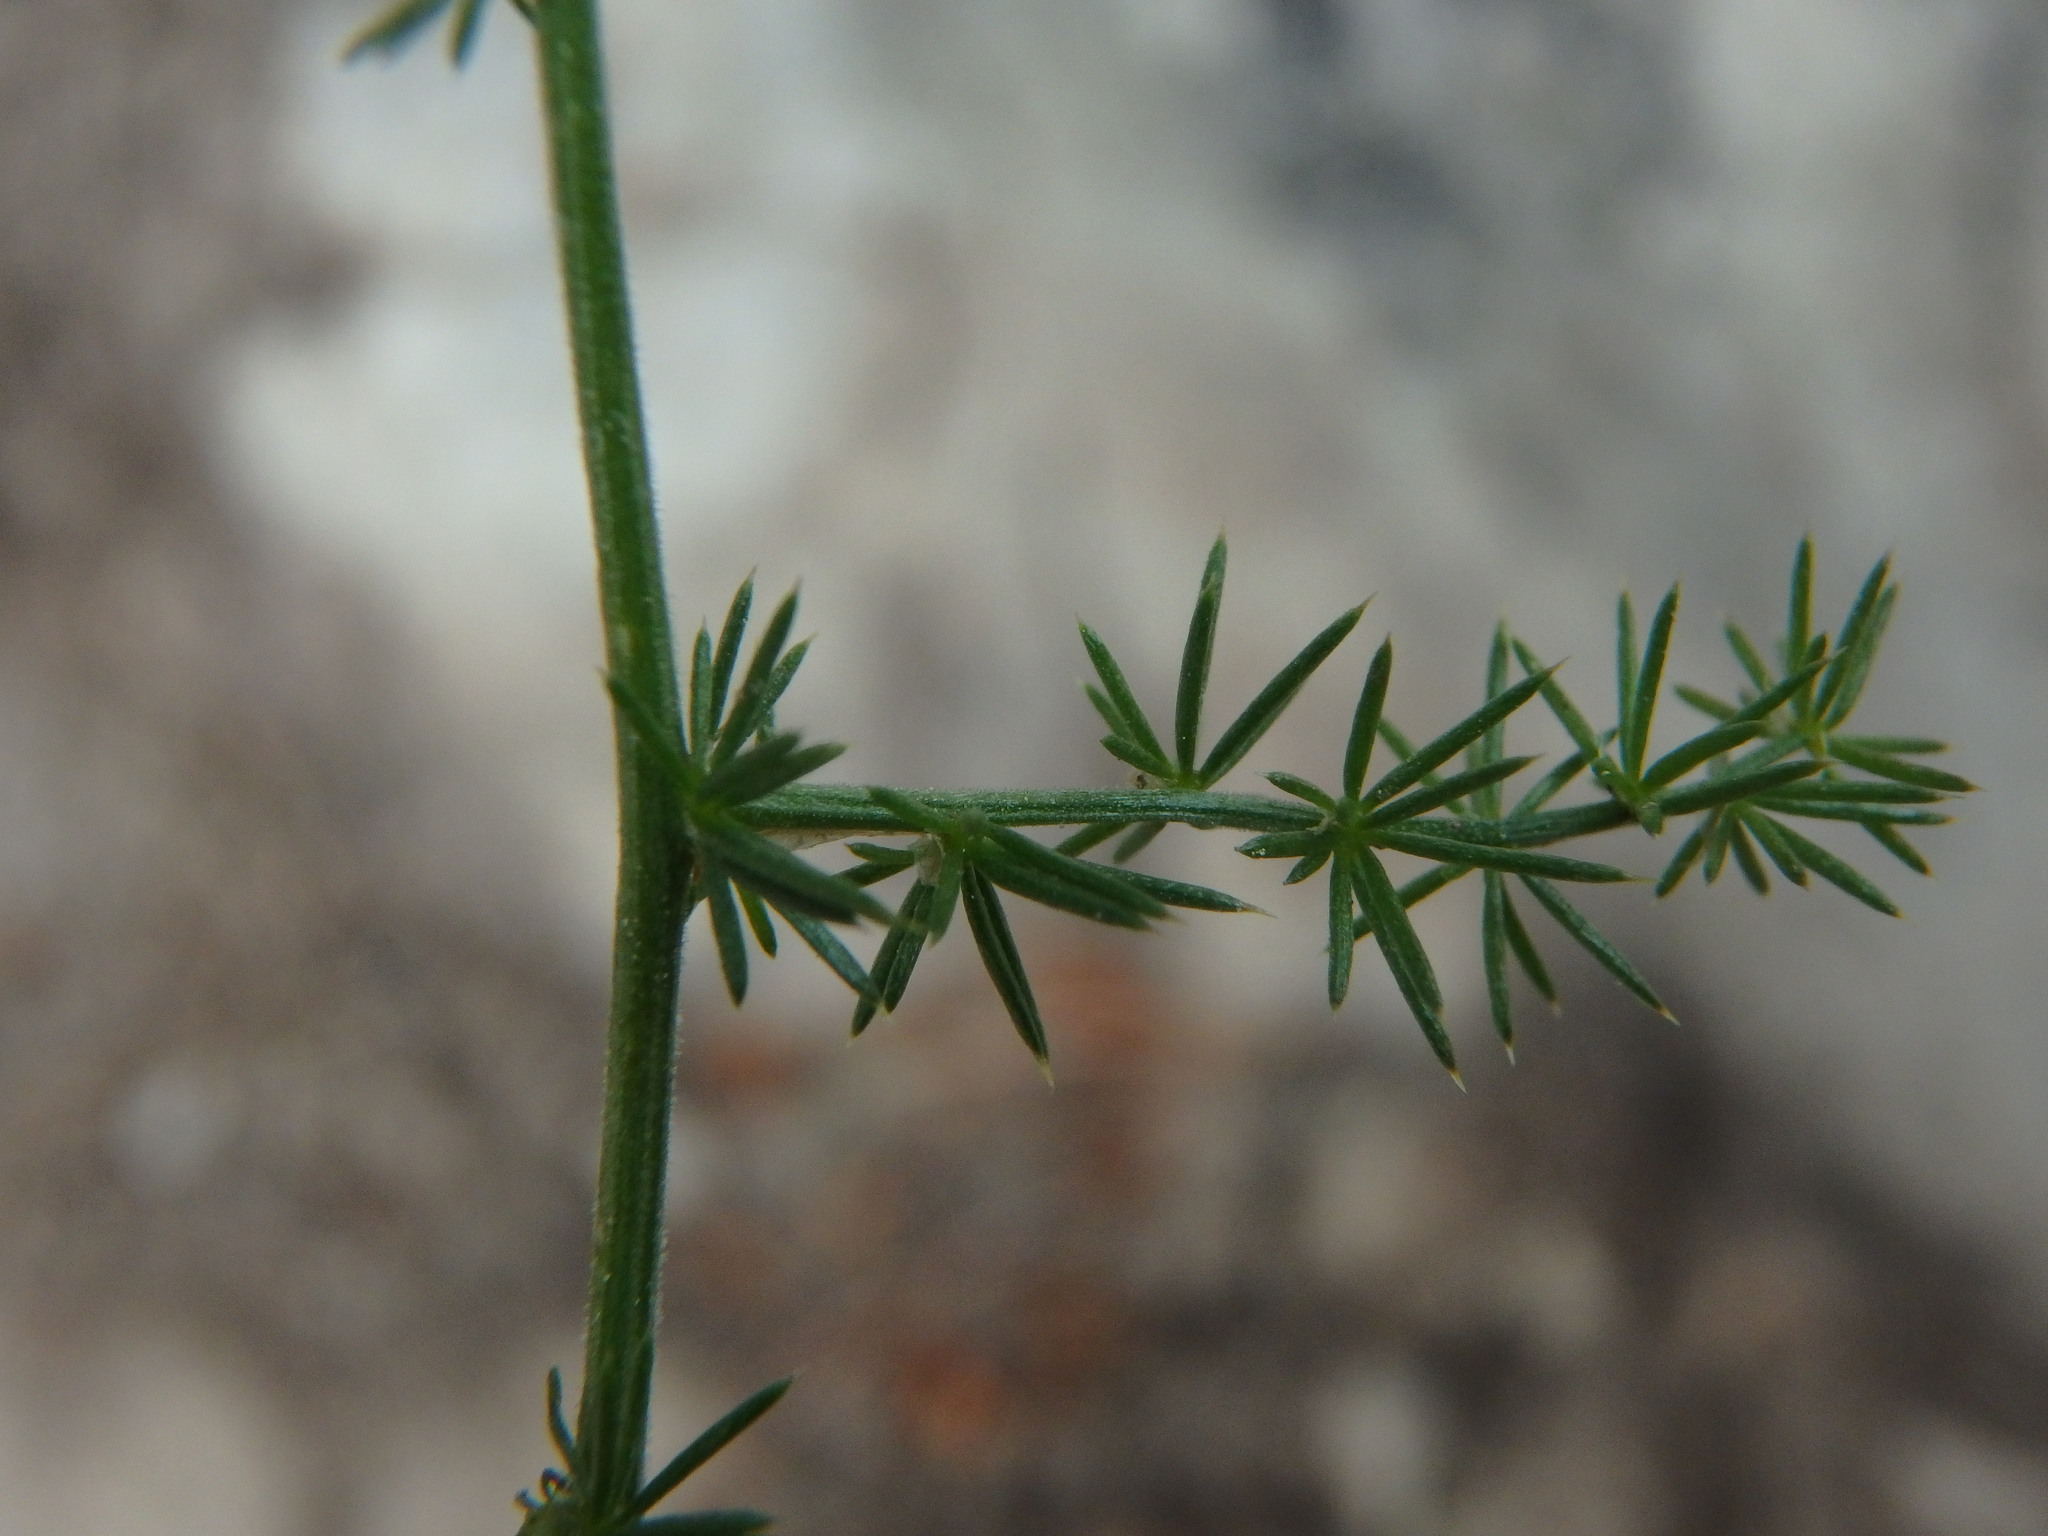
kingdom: Plantae
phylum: Tracheophyta
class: Liliopsida
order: Asparagales
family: Asparagaceae
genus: Asparagus
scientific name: Asparagus acutifolius
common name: Wild asparagus
